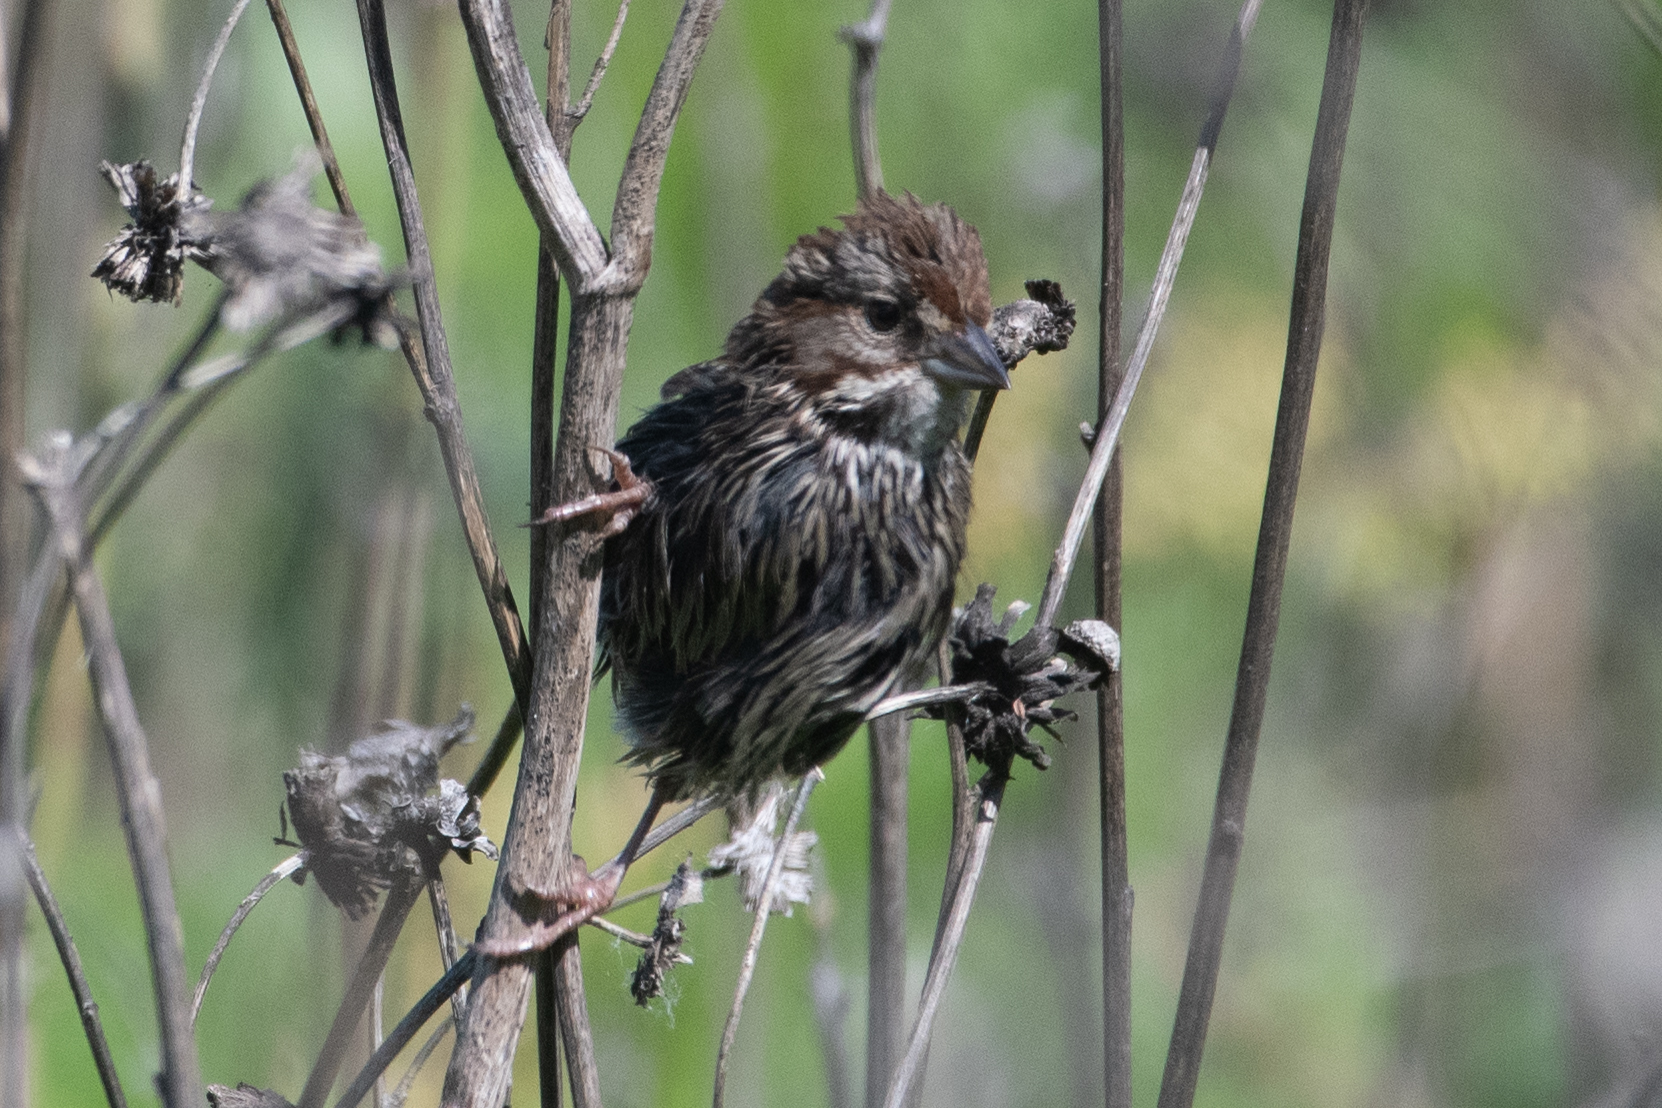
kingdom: Animalia
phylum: Chordata
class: Aves
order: Passeriformes
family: Passerellidae
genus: Melospiza
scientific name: Melospiza melodia
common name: Song sparrow
